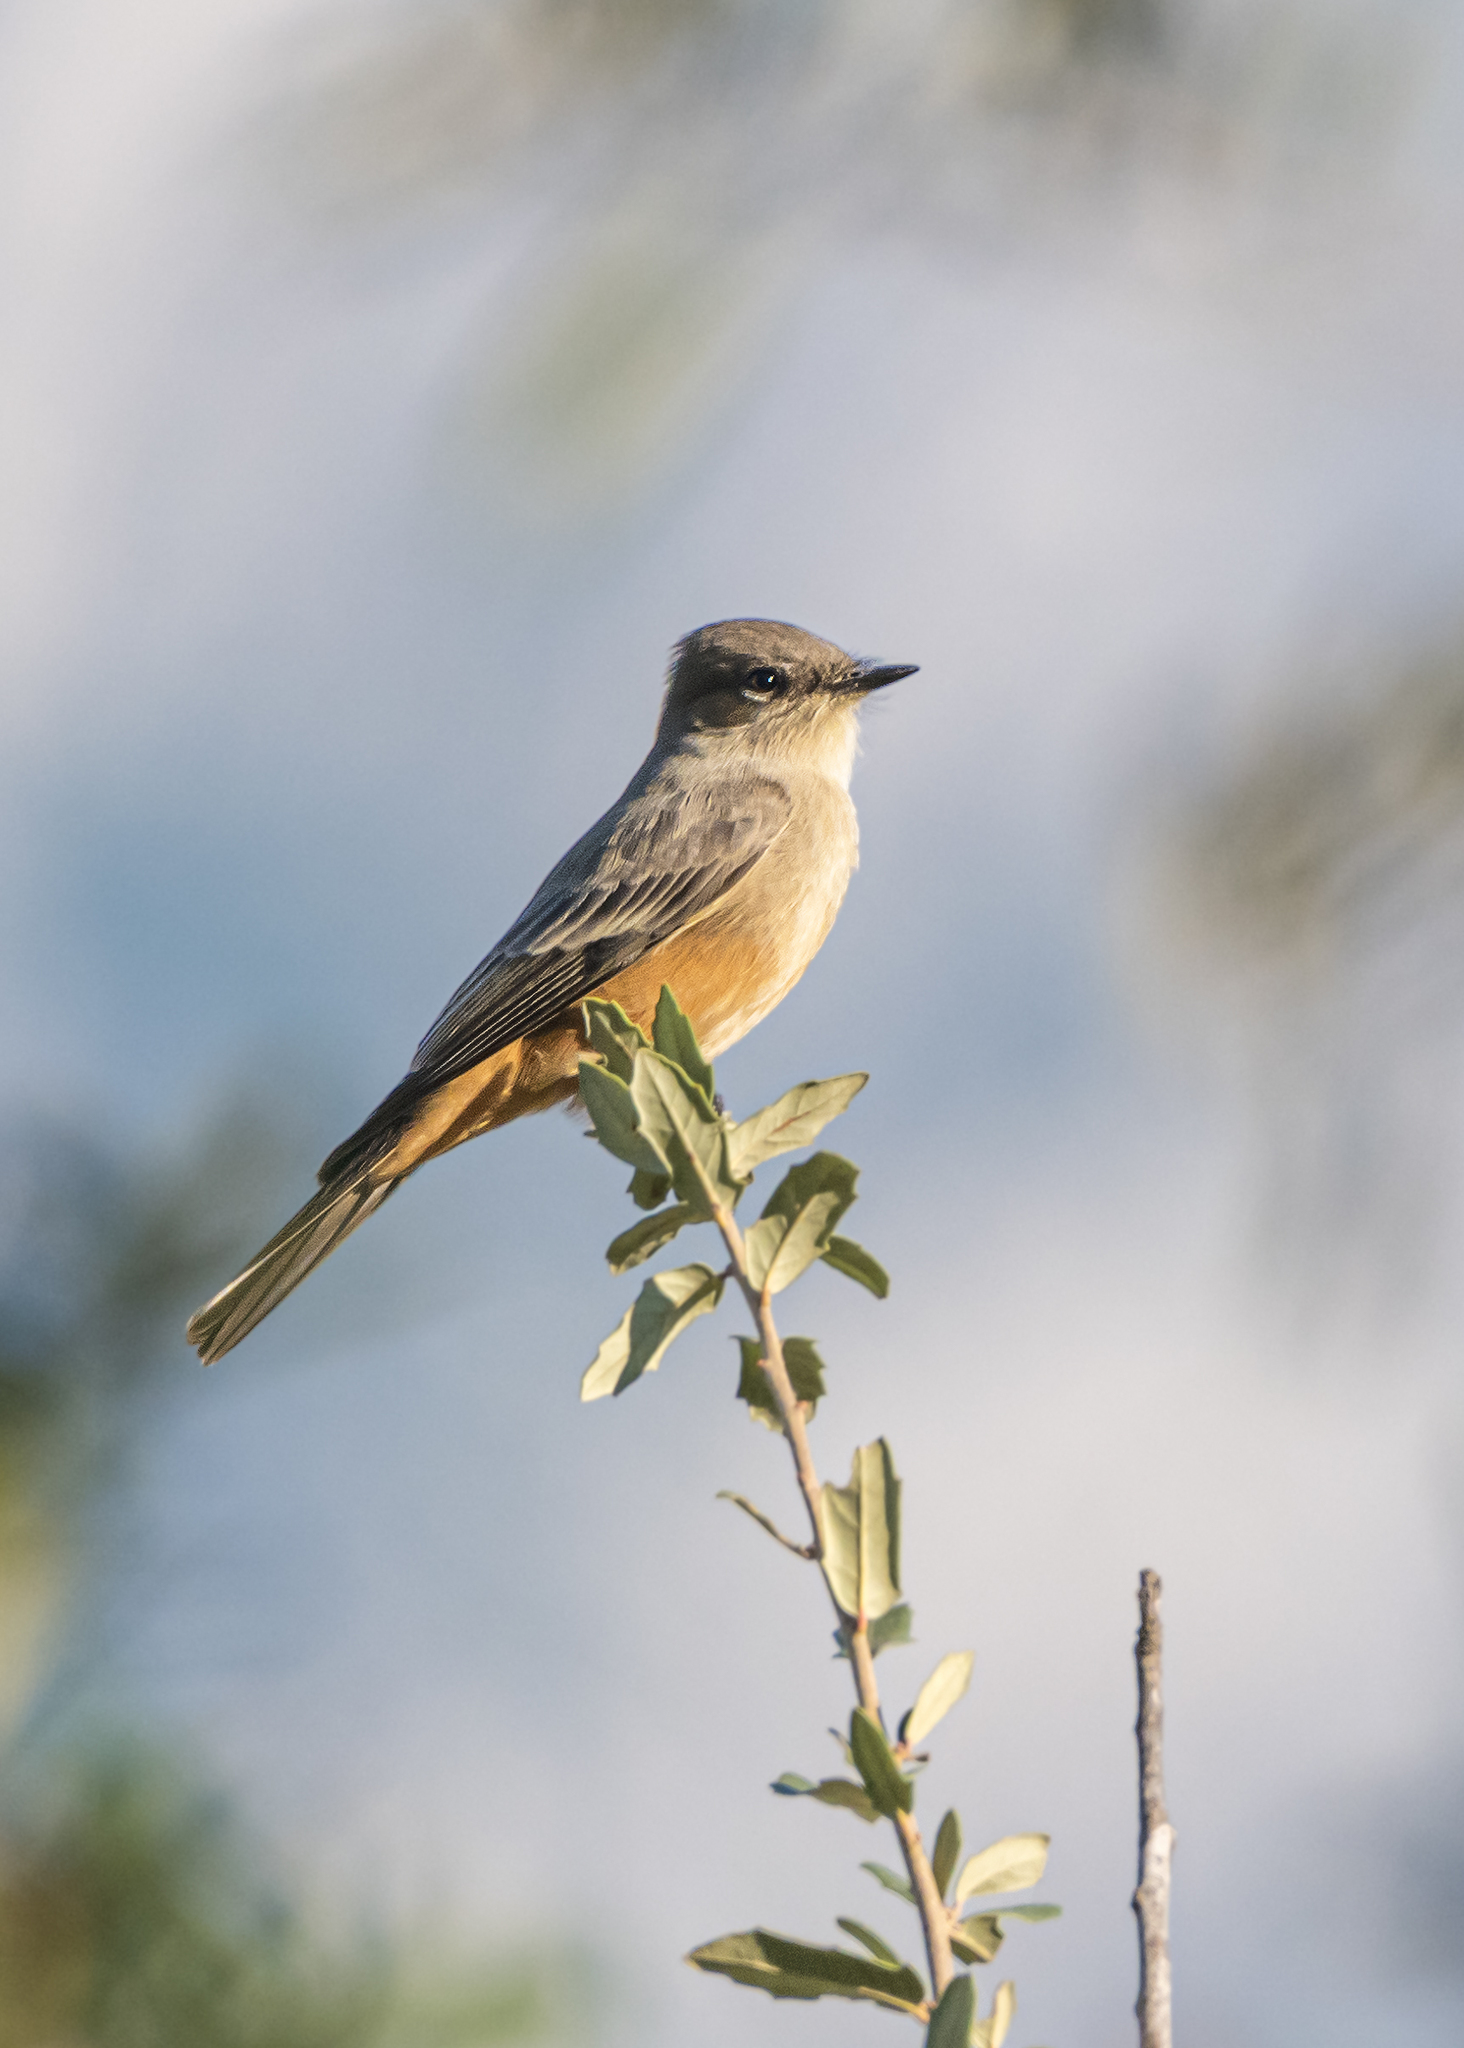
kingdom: Animalia
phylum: Chordata
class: Aves
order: Passeriformes
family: Tyrannidae
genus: Sayornis
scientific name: Sayornis saya
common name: Say's phoebe
